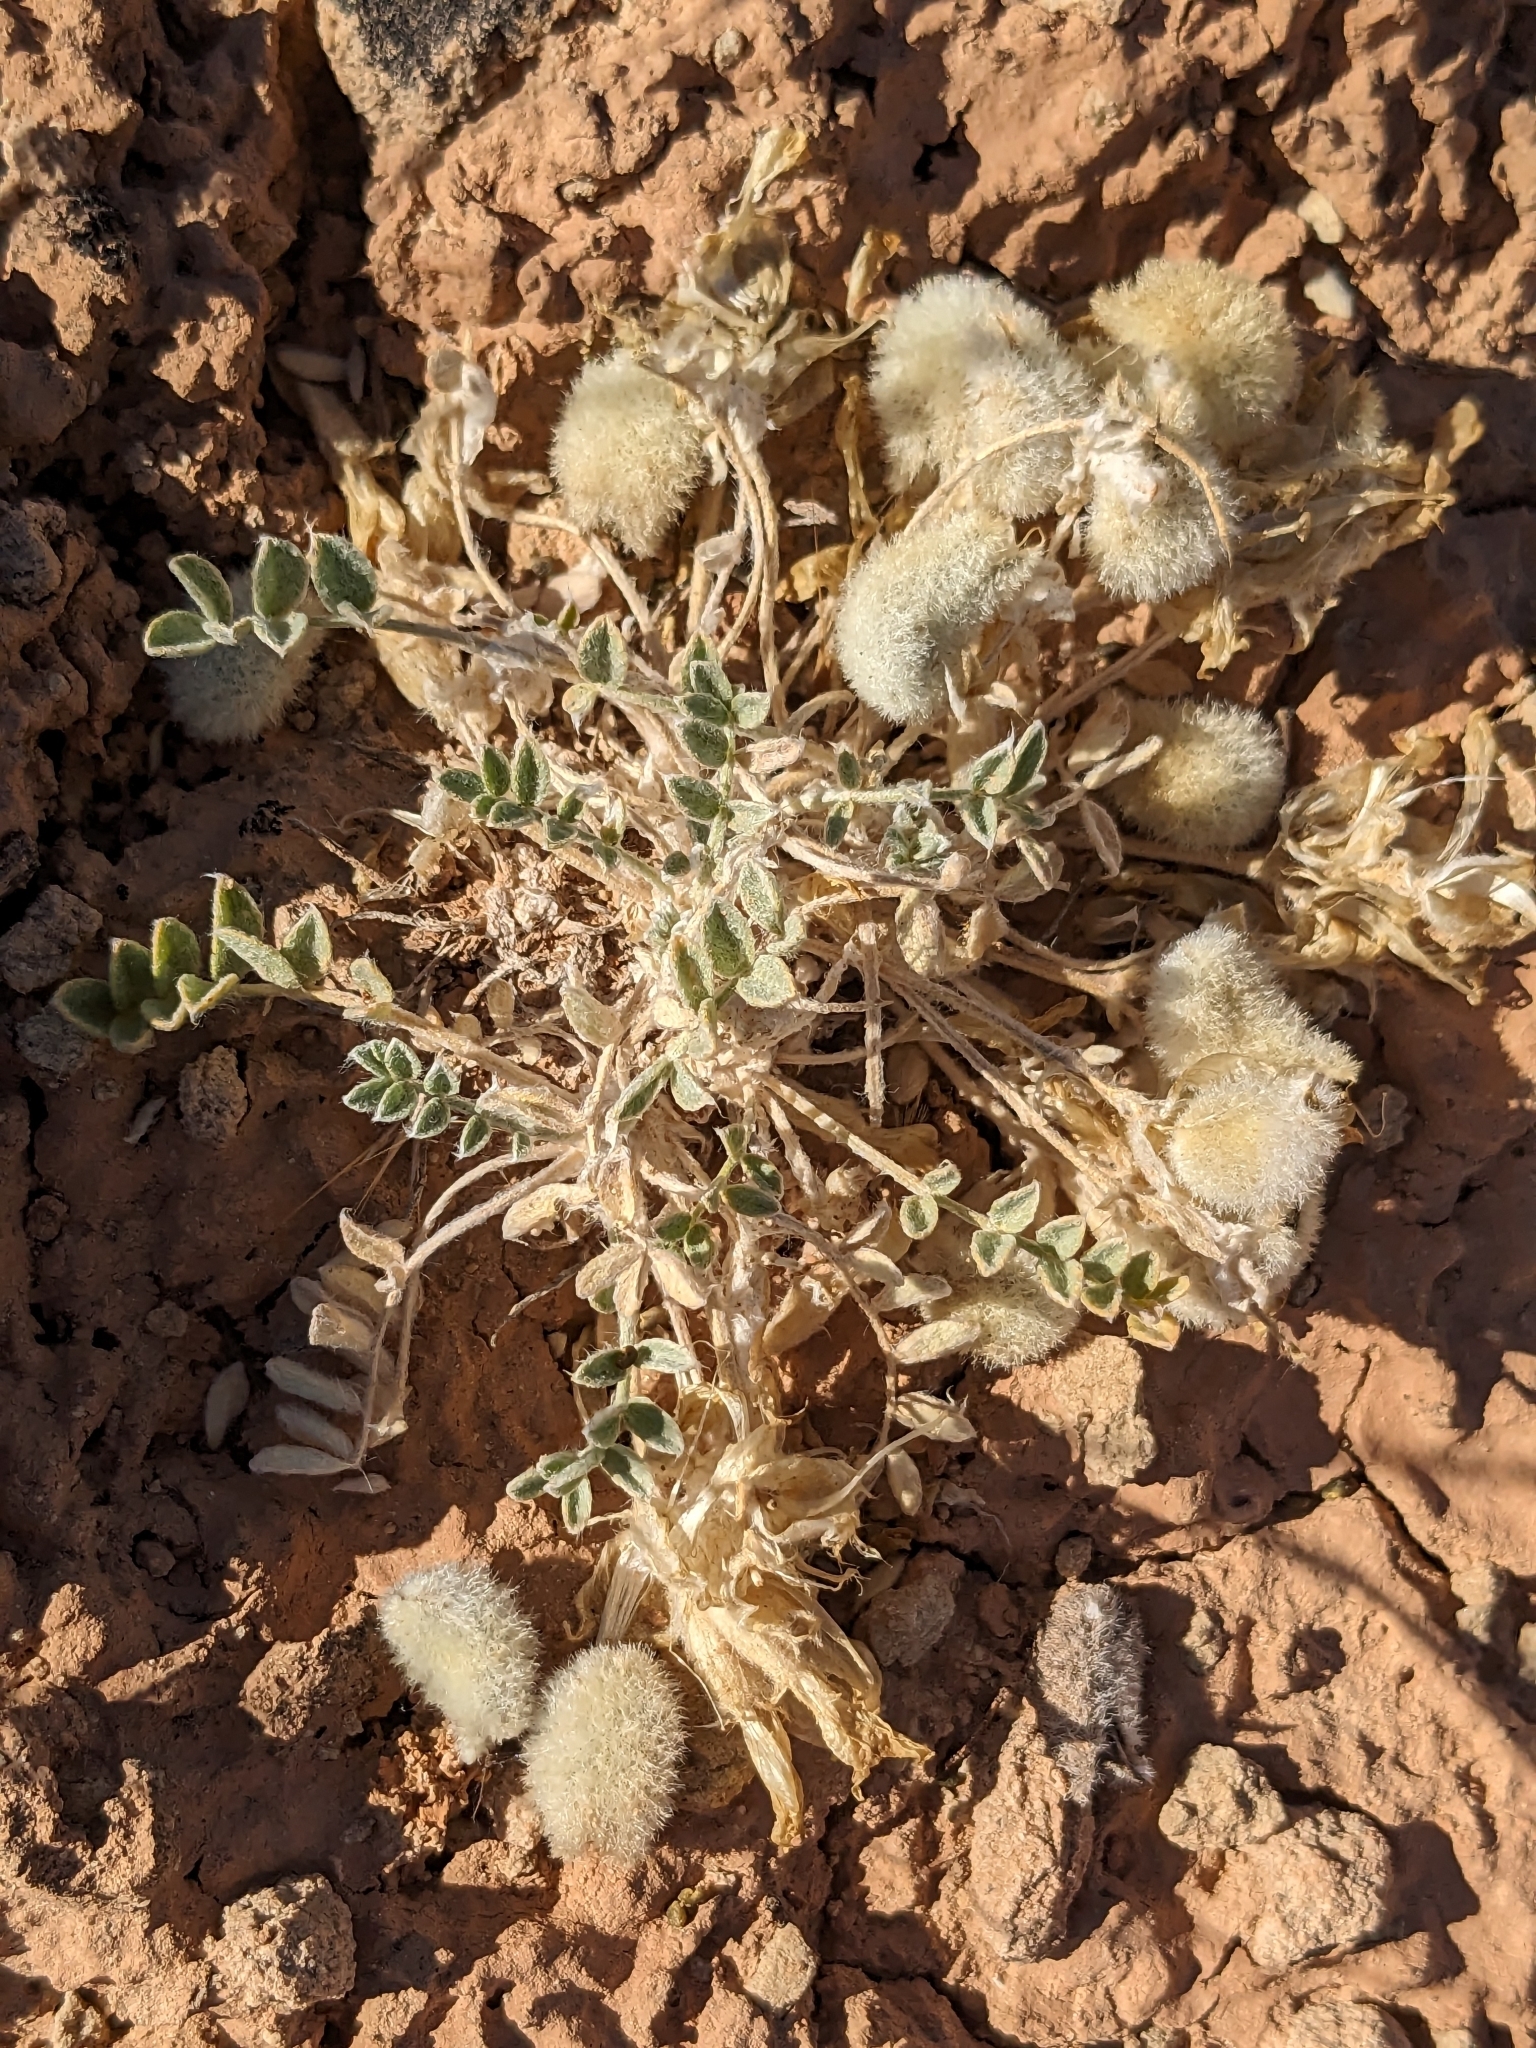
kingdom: Plantae
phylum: Tracheophyta
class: Magnoliopsida
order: Fabales
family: Fabaceae
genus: Astragalus
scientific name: Astragalus purshii
